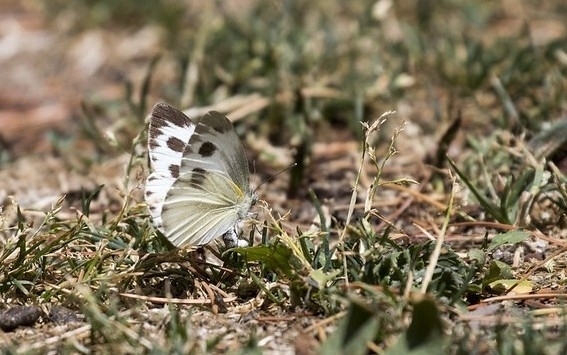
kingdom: Animalia
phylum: Arthropoda
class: Insecta
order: Lepidoptera
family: Pieridae
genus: Pieris
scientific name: Pieris canidia
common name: Indian cabbage white
